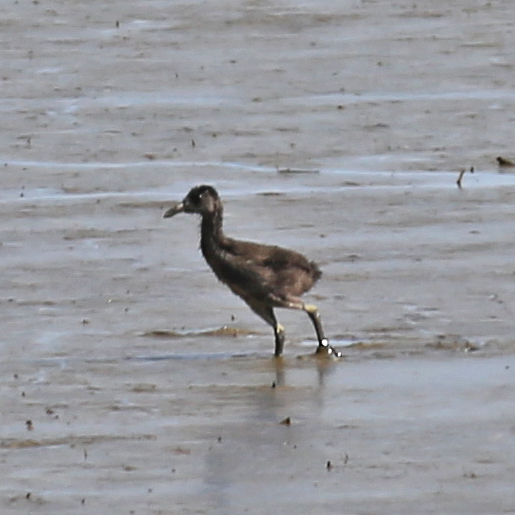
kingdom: Animalia
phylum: Chordata
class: Aves
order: Gruiformes
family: Rallidae
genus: Rallus
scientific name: Rallus crepitans
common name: Clapper rail
